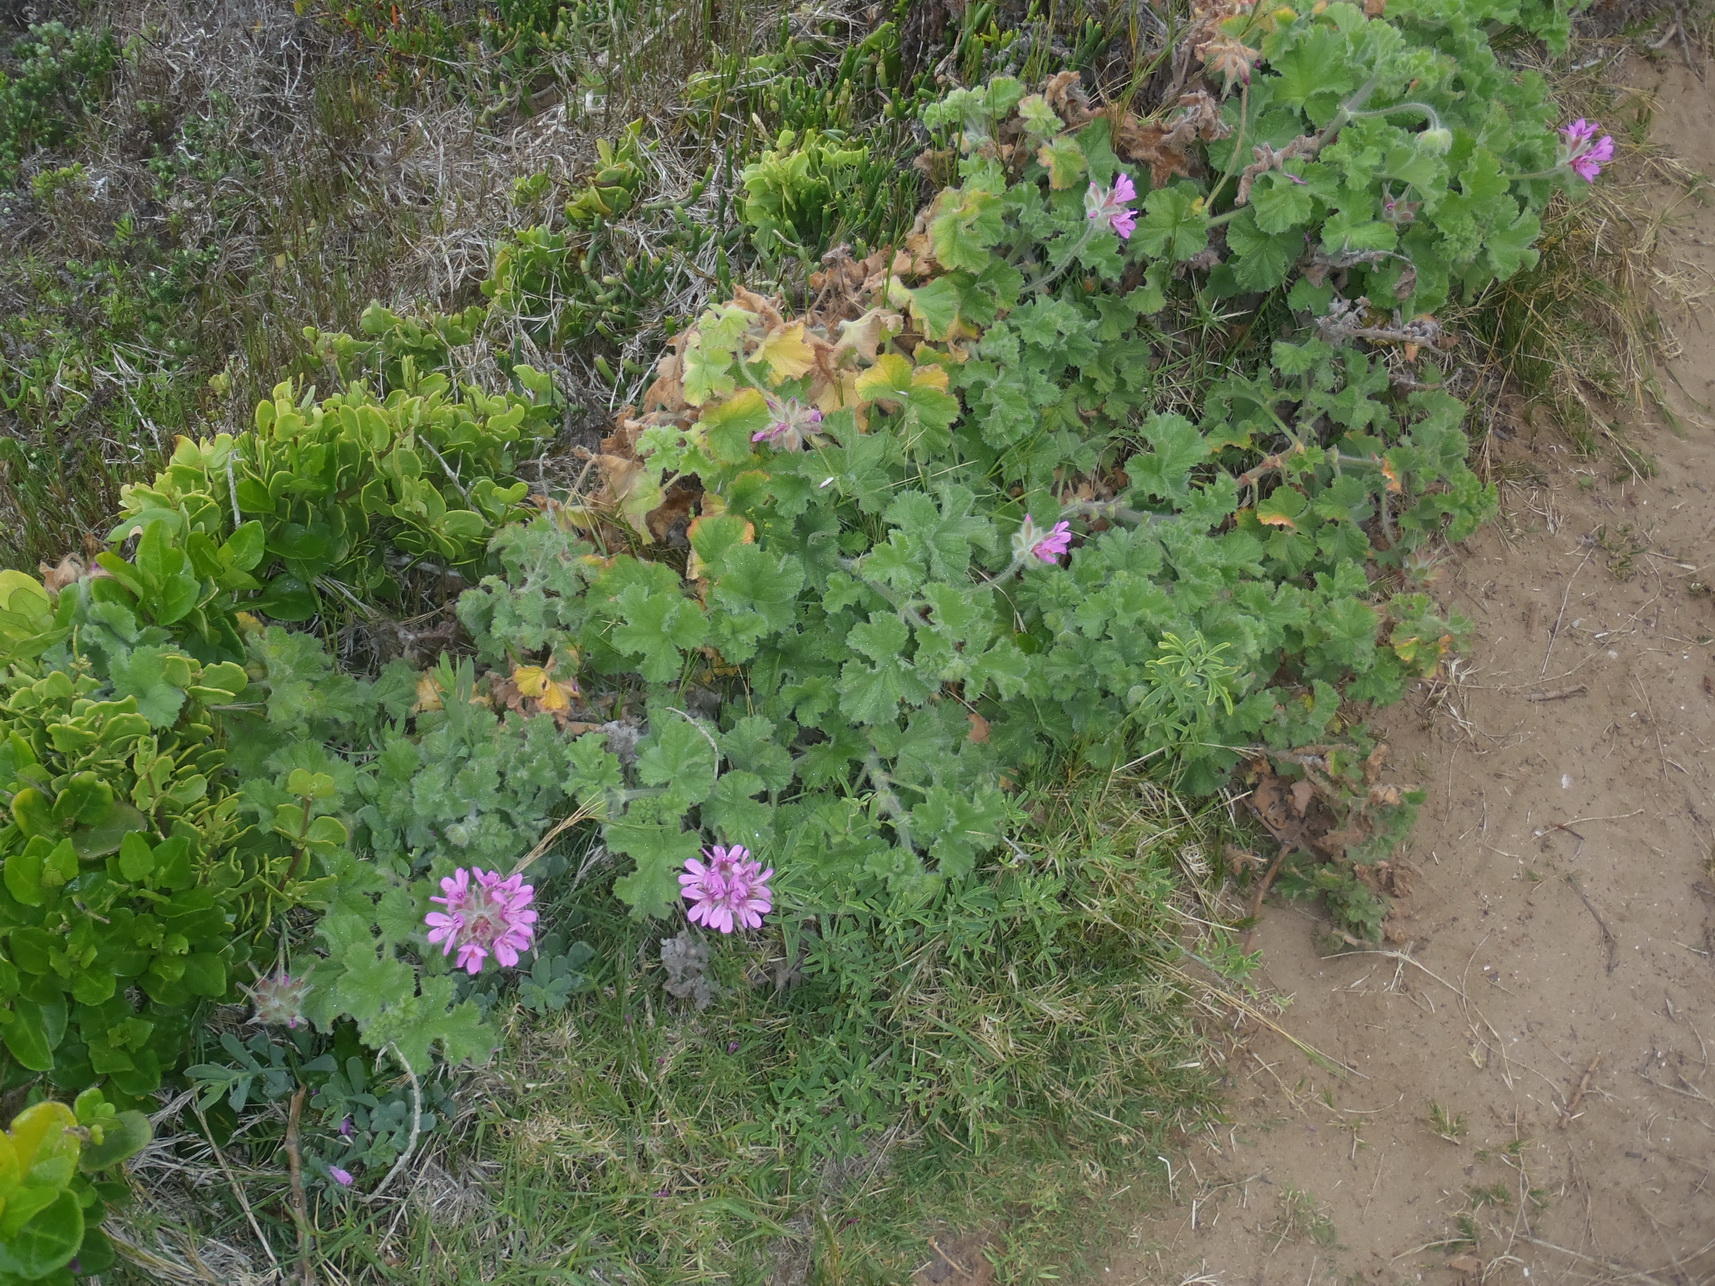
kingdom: Plantae
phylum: Tracheophyta
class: Magnoliopsida
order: Geraniales
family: Geraniaceae
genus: Pelargonium
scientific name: Pelargonium capitatum
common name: Rose scented geranium
